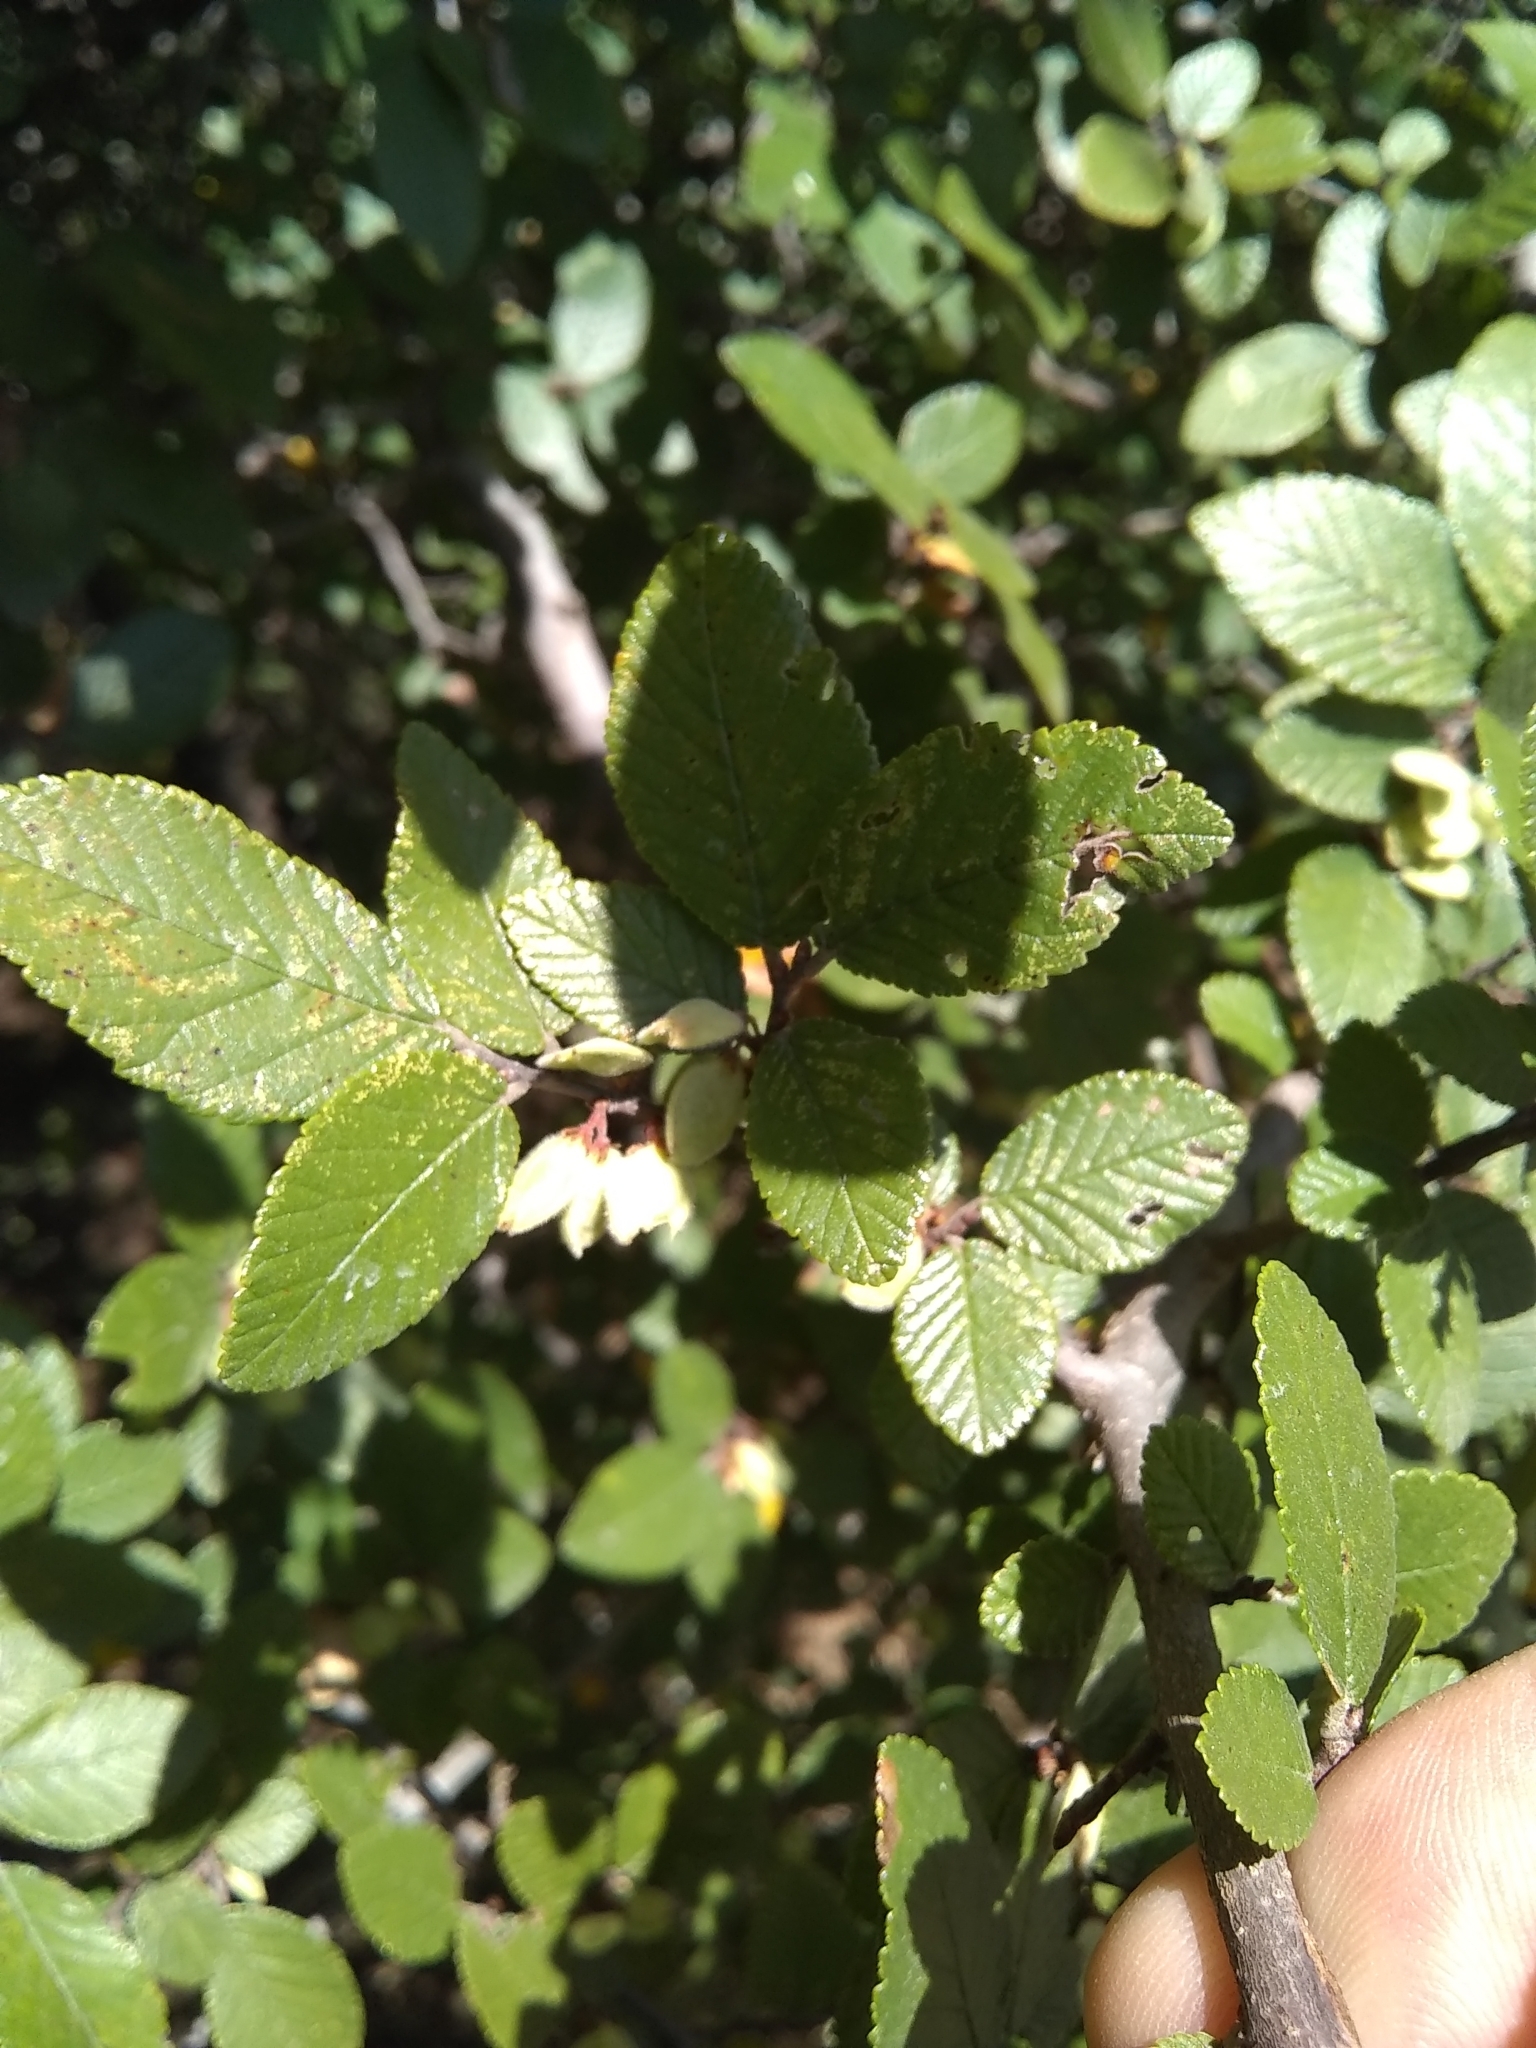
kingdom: Plantae
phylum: Tracheophyta
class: Magnoliopsida
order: Rosales
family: Ulmaceae
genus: Ulmus
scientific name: Ulmus crassifolia
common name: Basket elm
